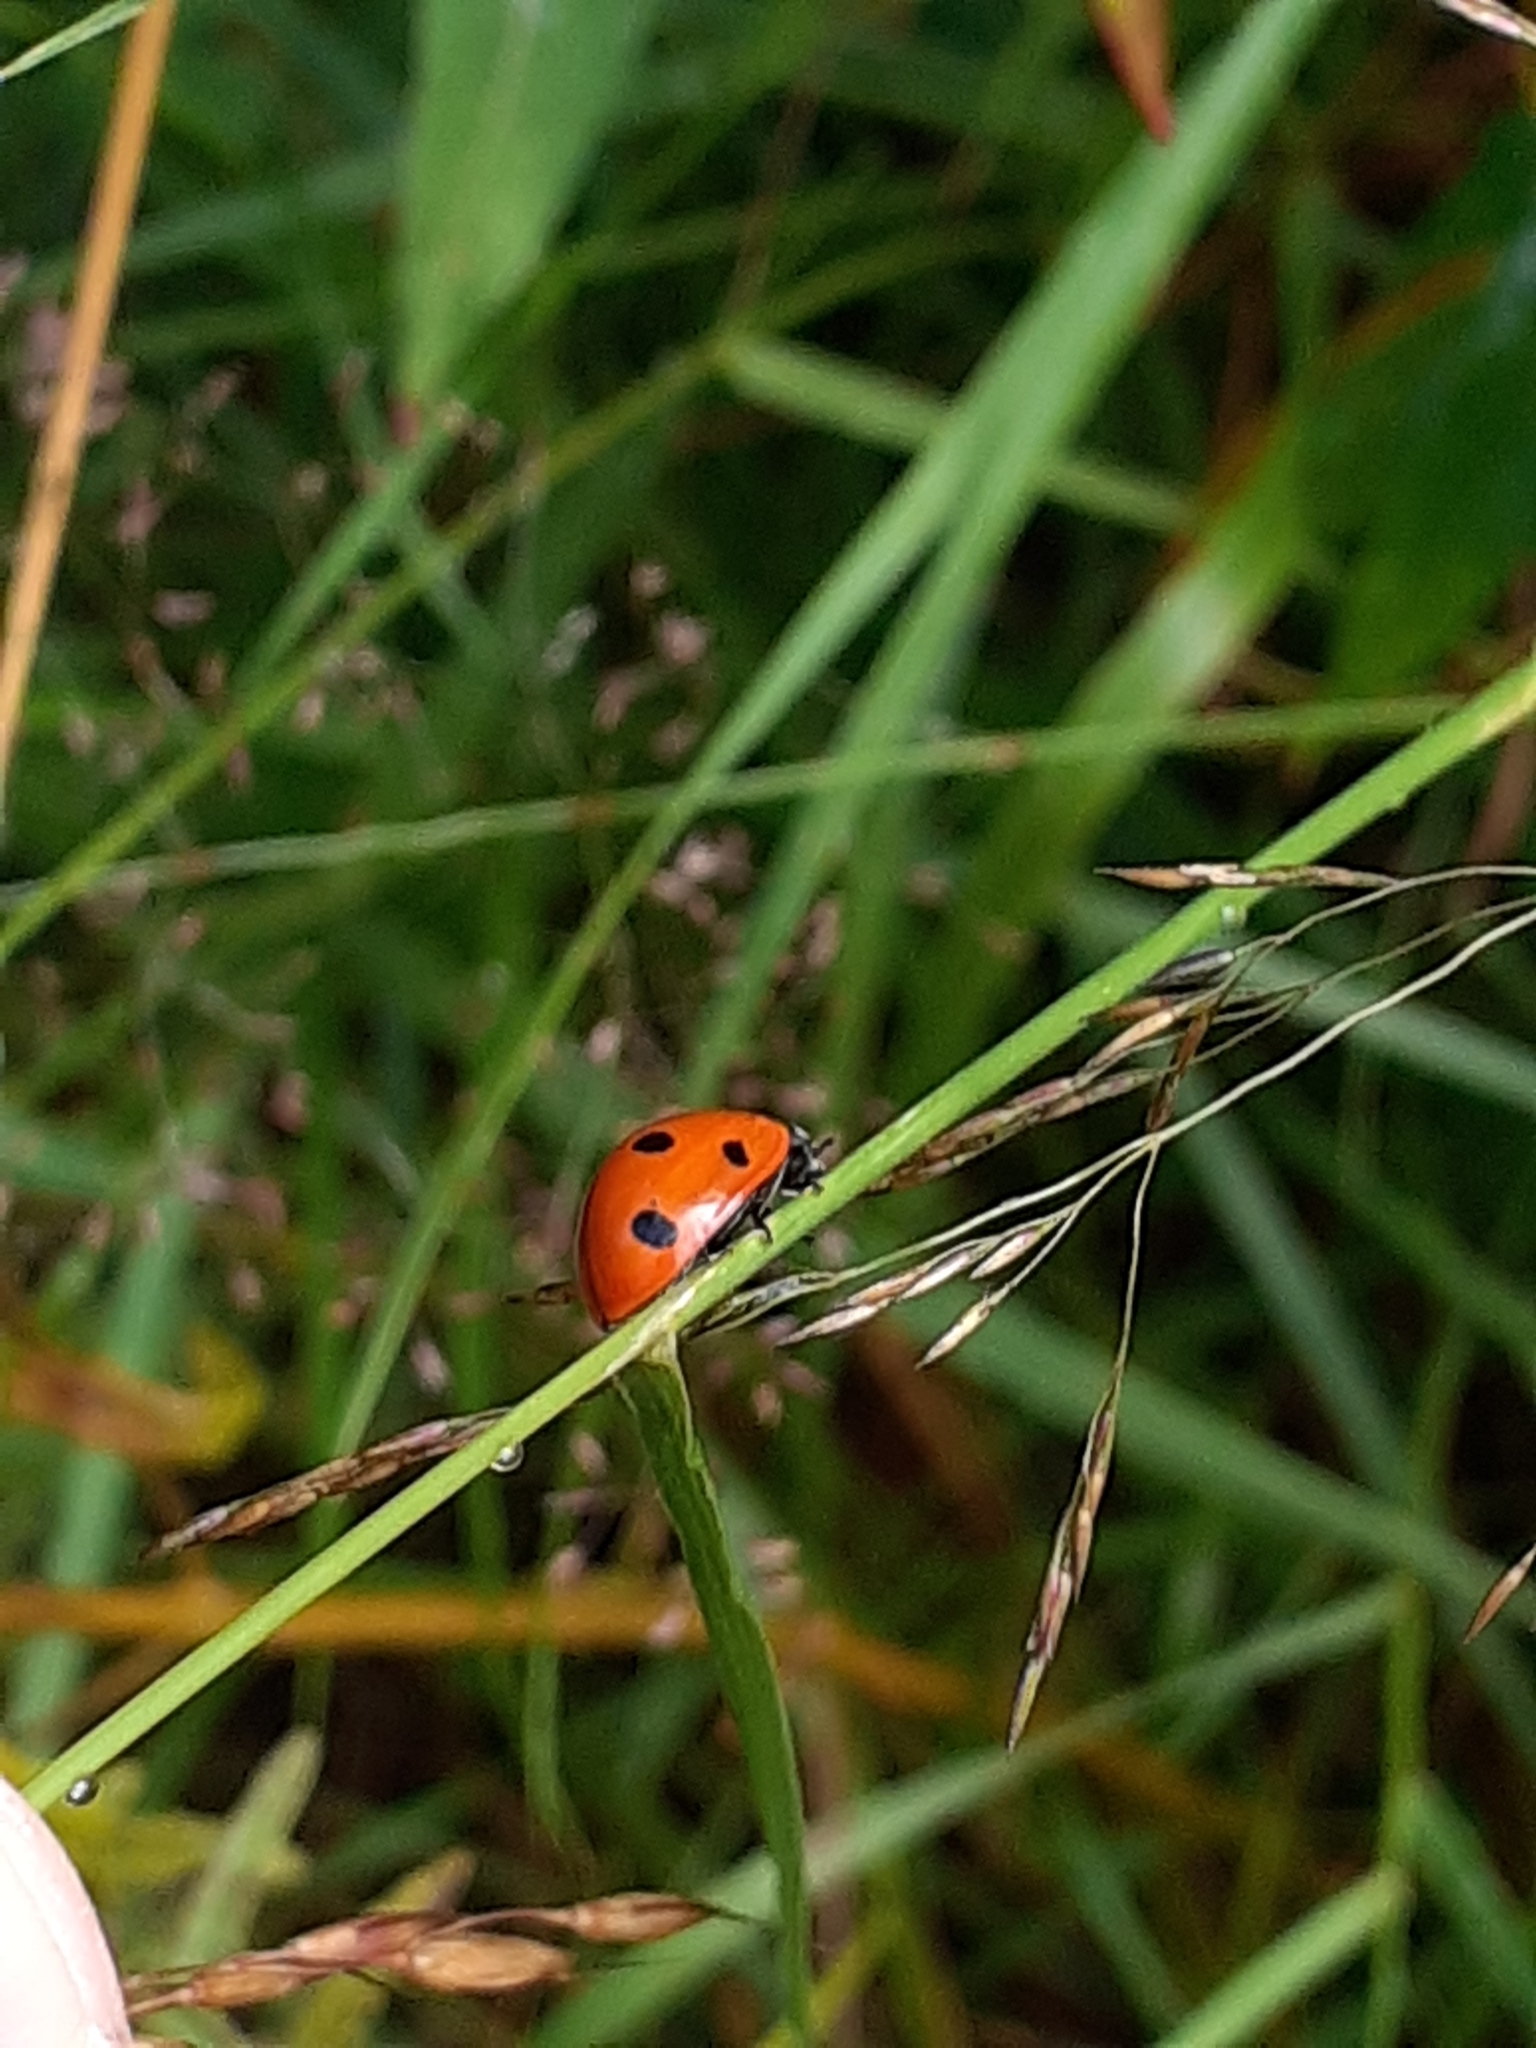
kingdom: Animalia
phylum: Arthropoda
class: Insecta
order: Coleoptera
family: Coccinellidae
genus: Coccinella
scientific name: Coccinella septempunctata
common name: Sevenspotted lady beetle
